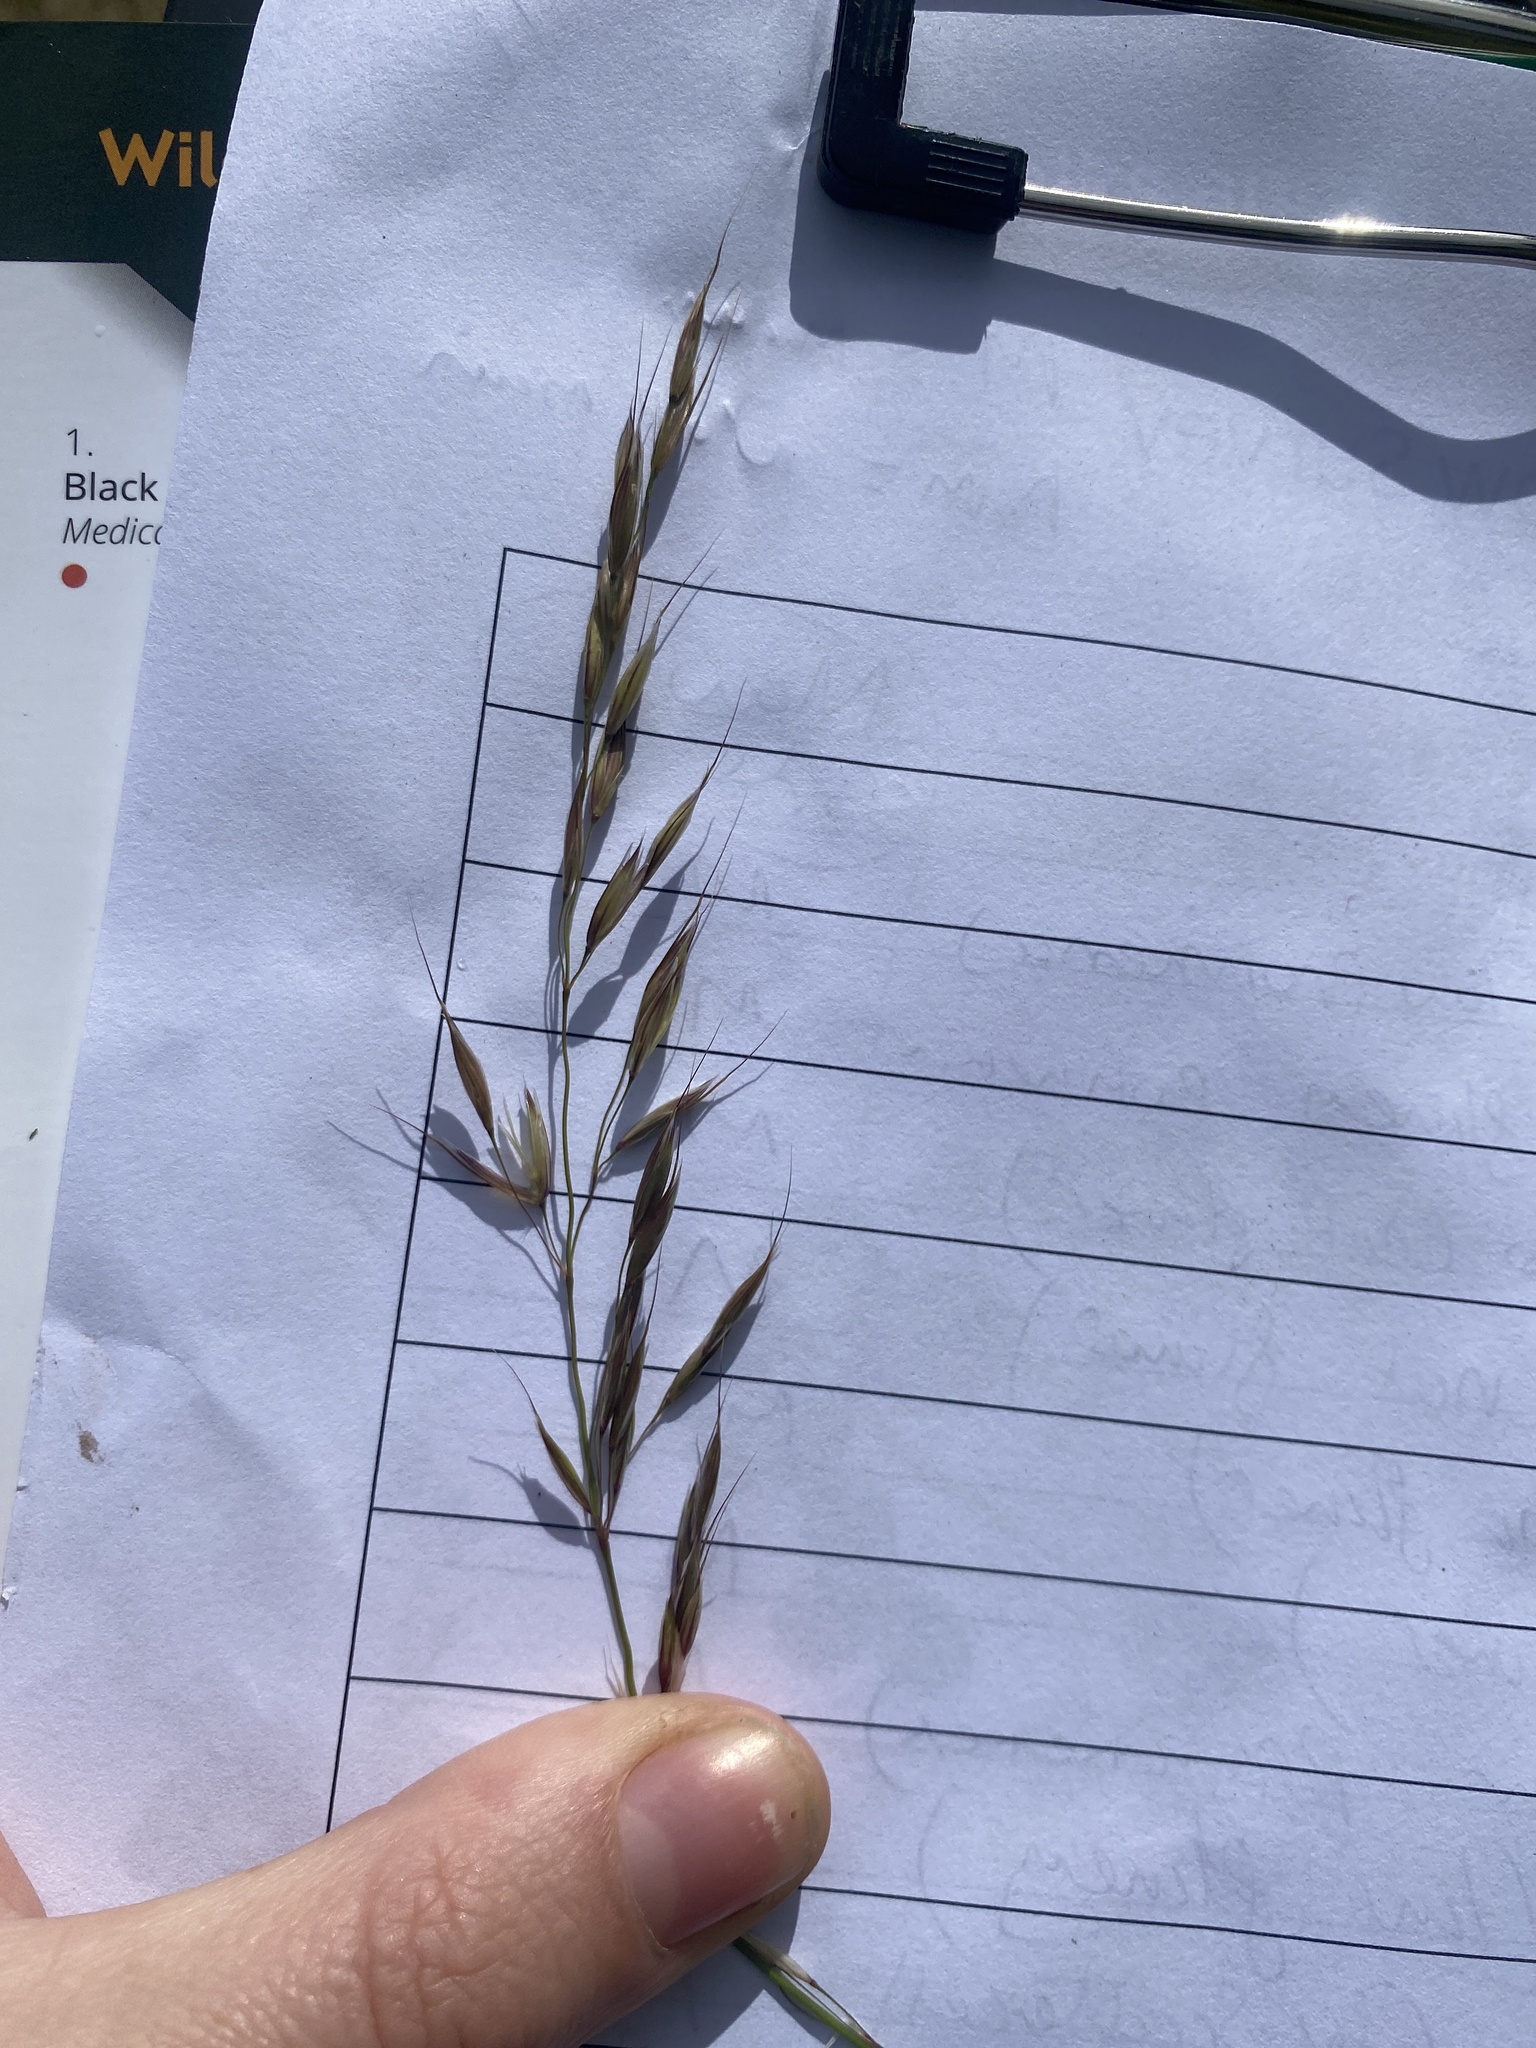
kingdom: Plantae
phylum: Tracheophyta
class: Liliopsida
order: Poales
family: Poaceae
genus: Arrhenatherum
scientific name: Arrhenatherum elatius
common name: Tall oatgrass
